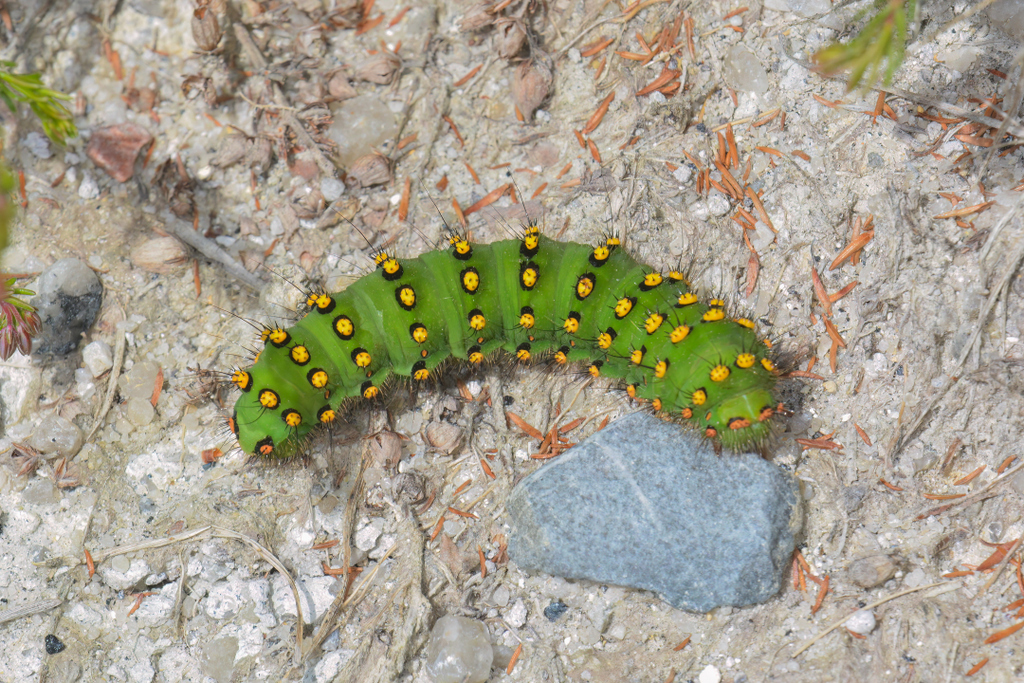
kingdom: Animalia
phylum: Arthropoda
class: Insecta
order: Lepidoptera
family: Saturniidae
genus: Saturnia
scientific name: Saturnia pavonia
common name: Emperor moth
